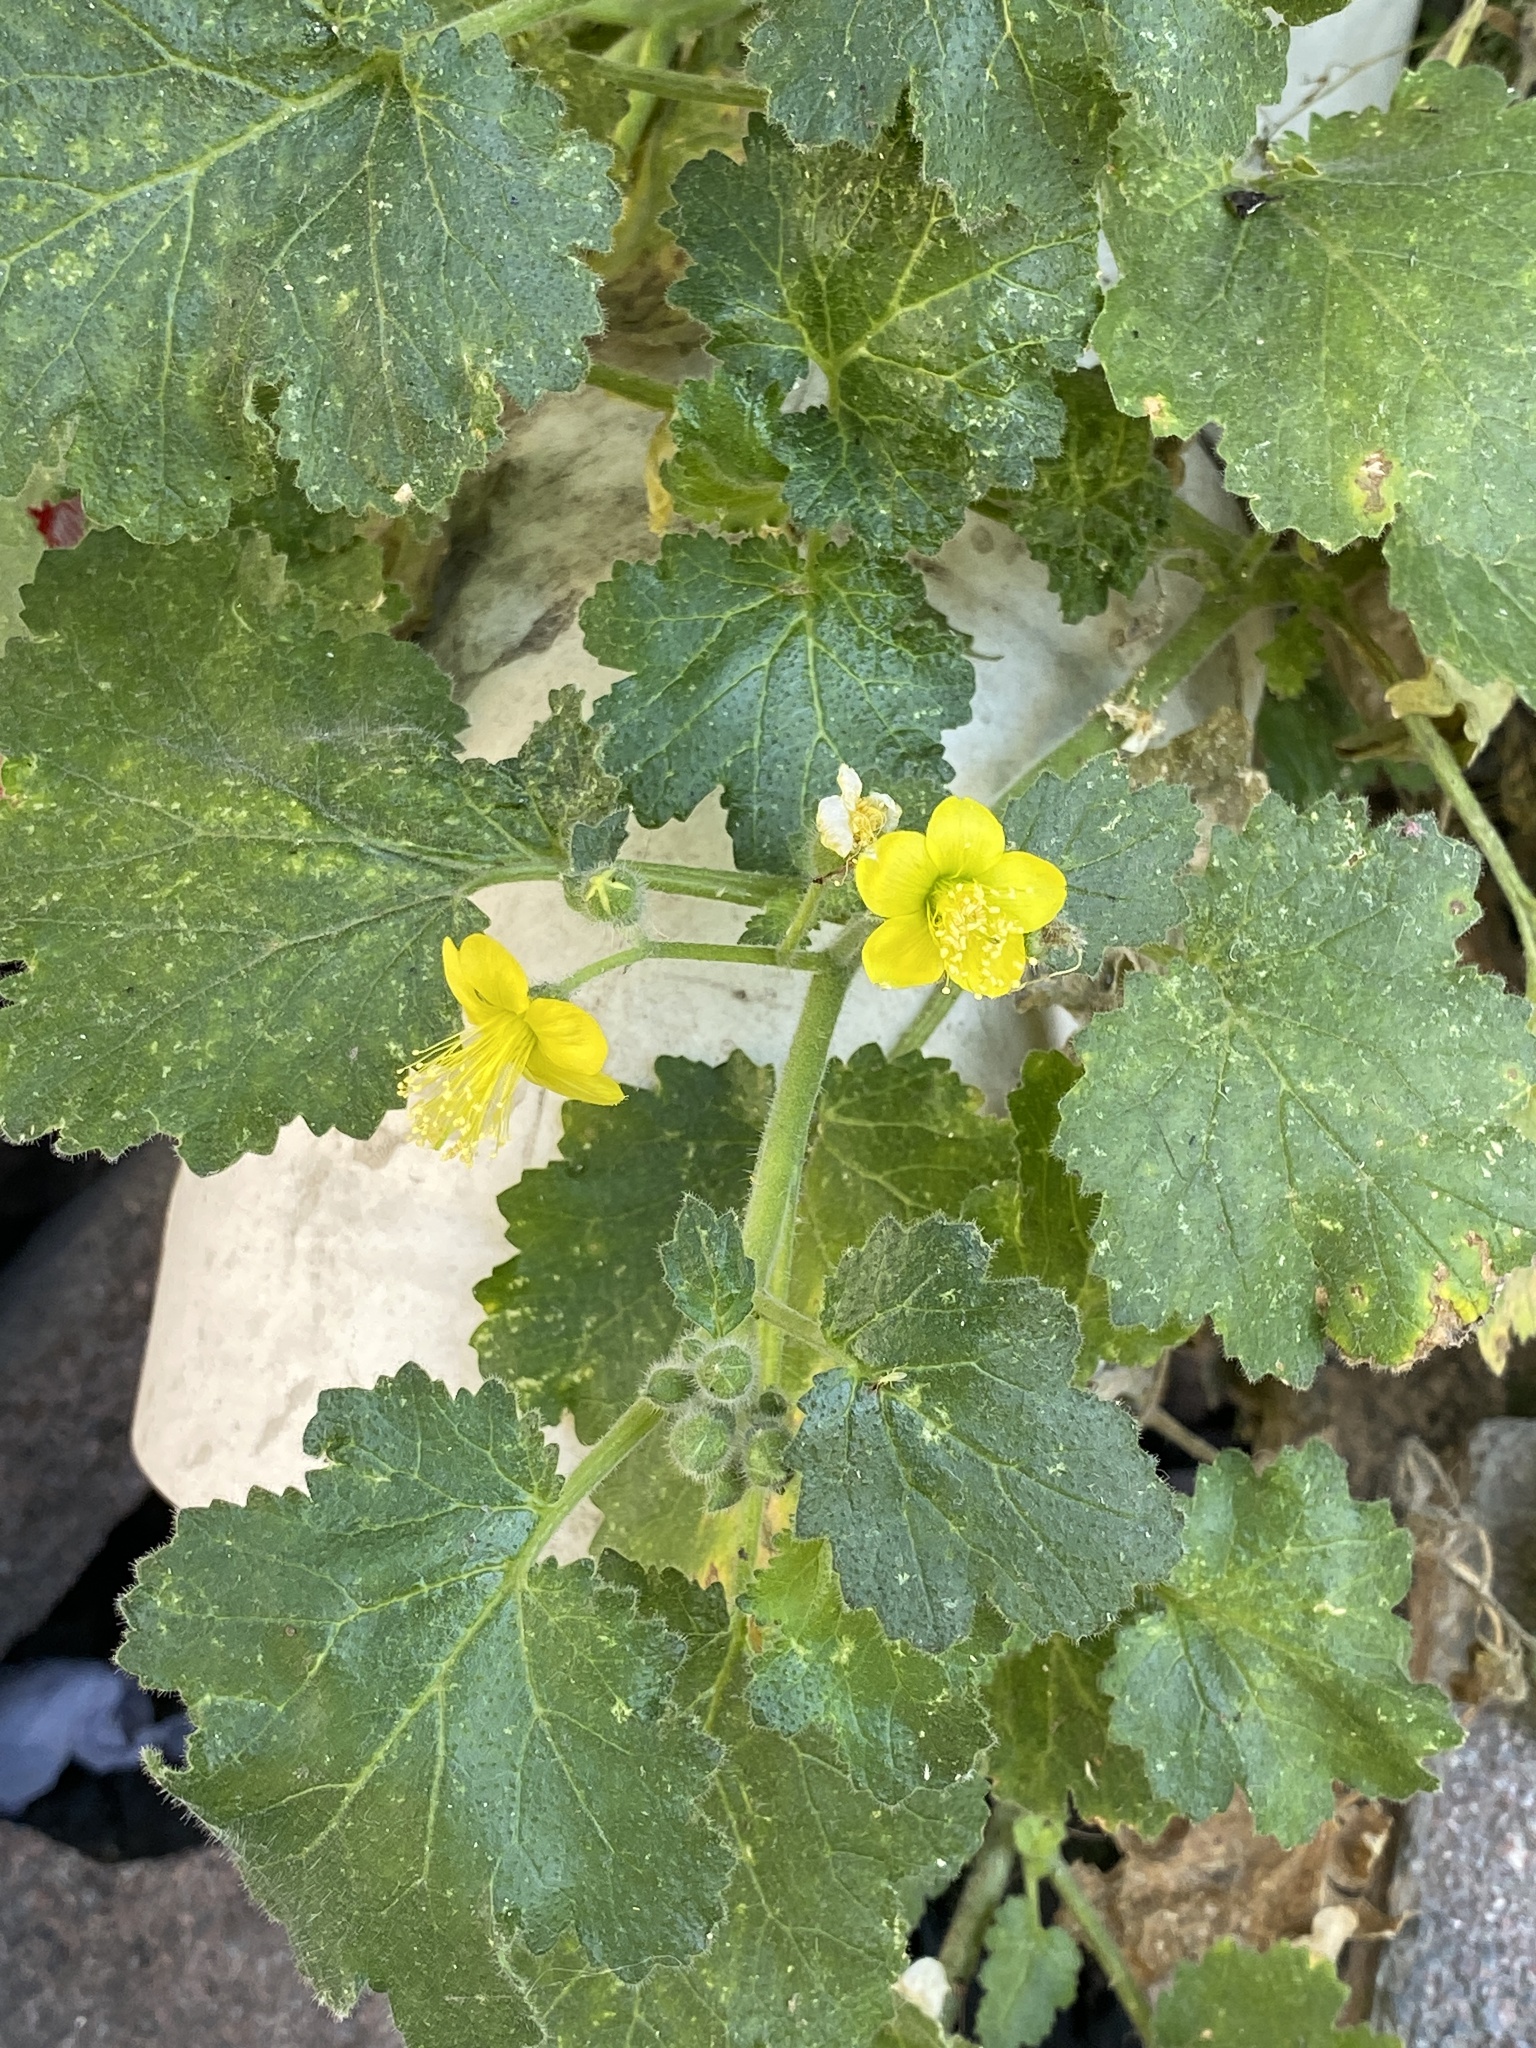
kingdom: Plantae
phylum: Tracheophyta
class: Magnoliopsida
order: Cornales
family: Loasaceae
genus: Eucnide
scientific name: Eucnide lobata
